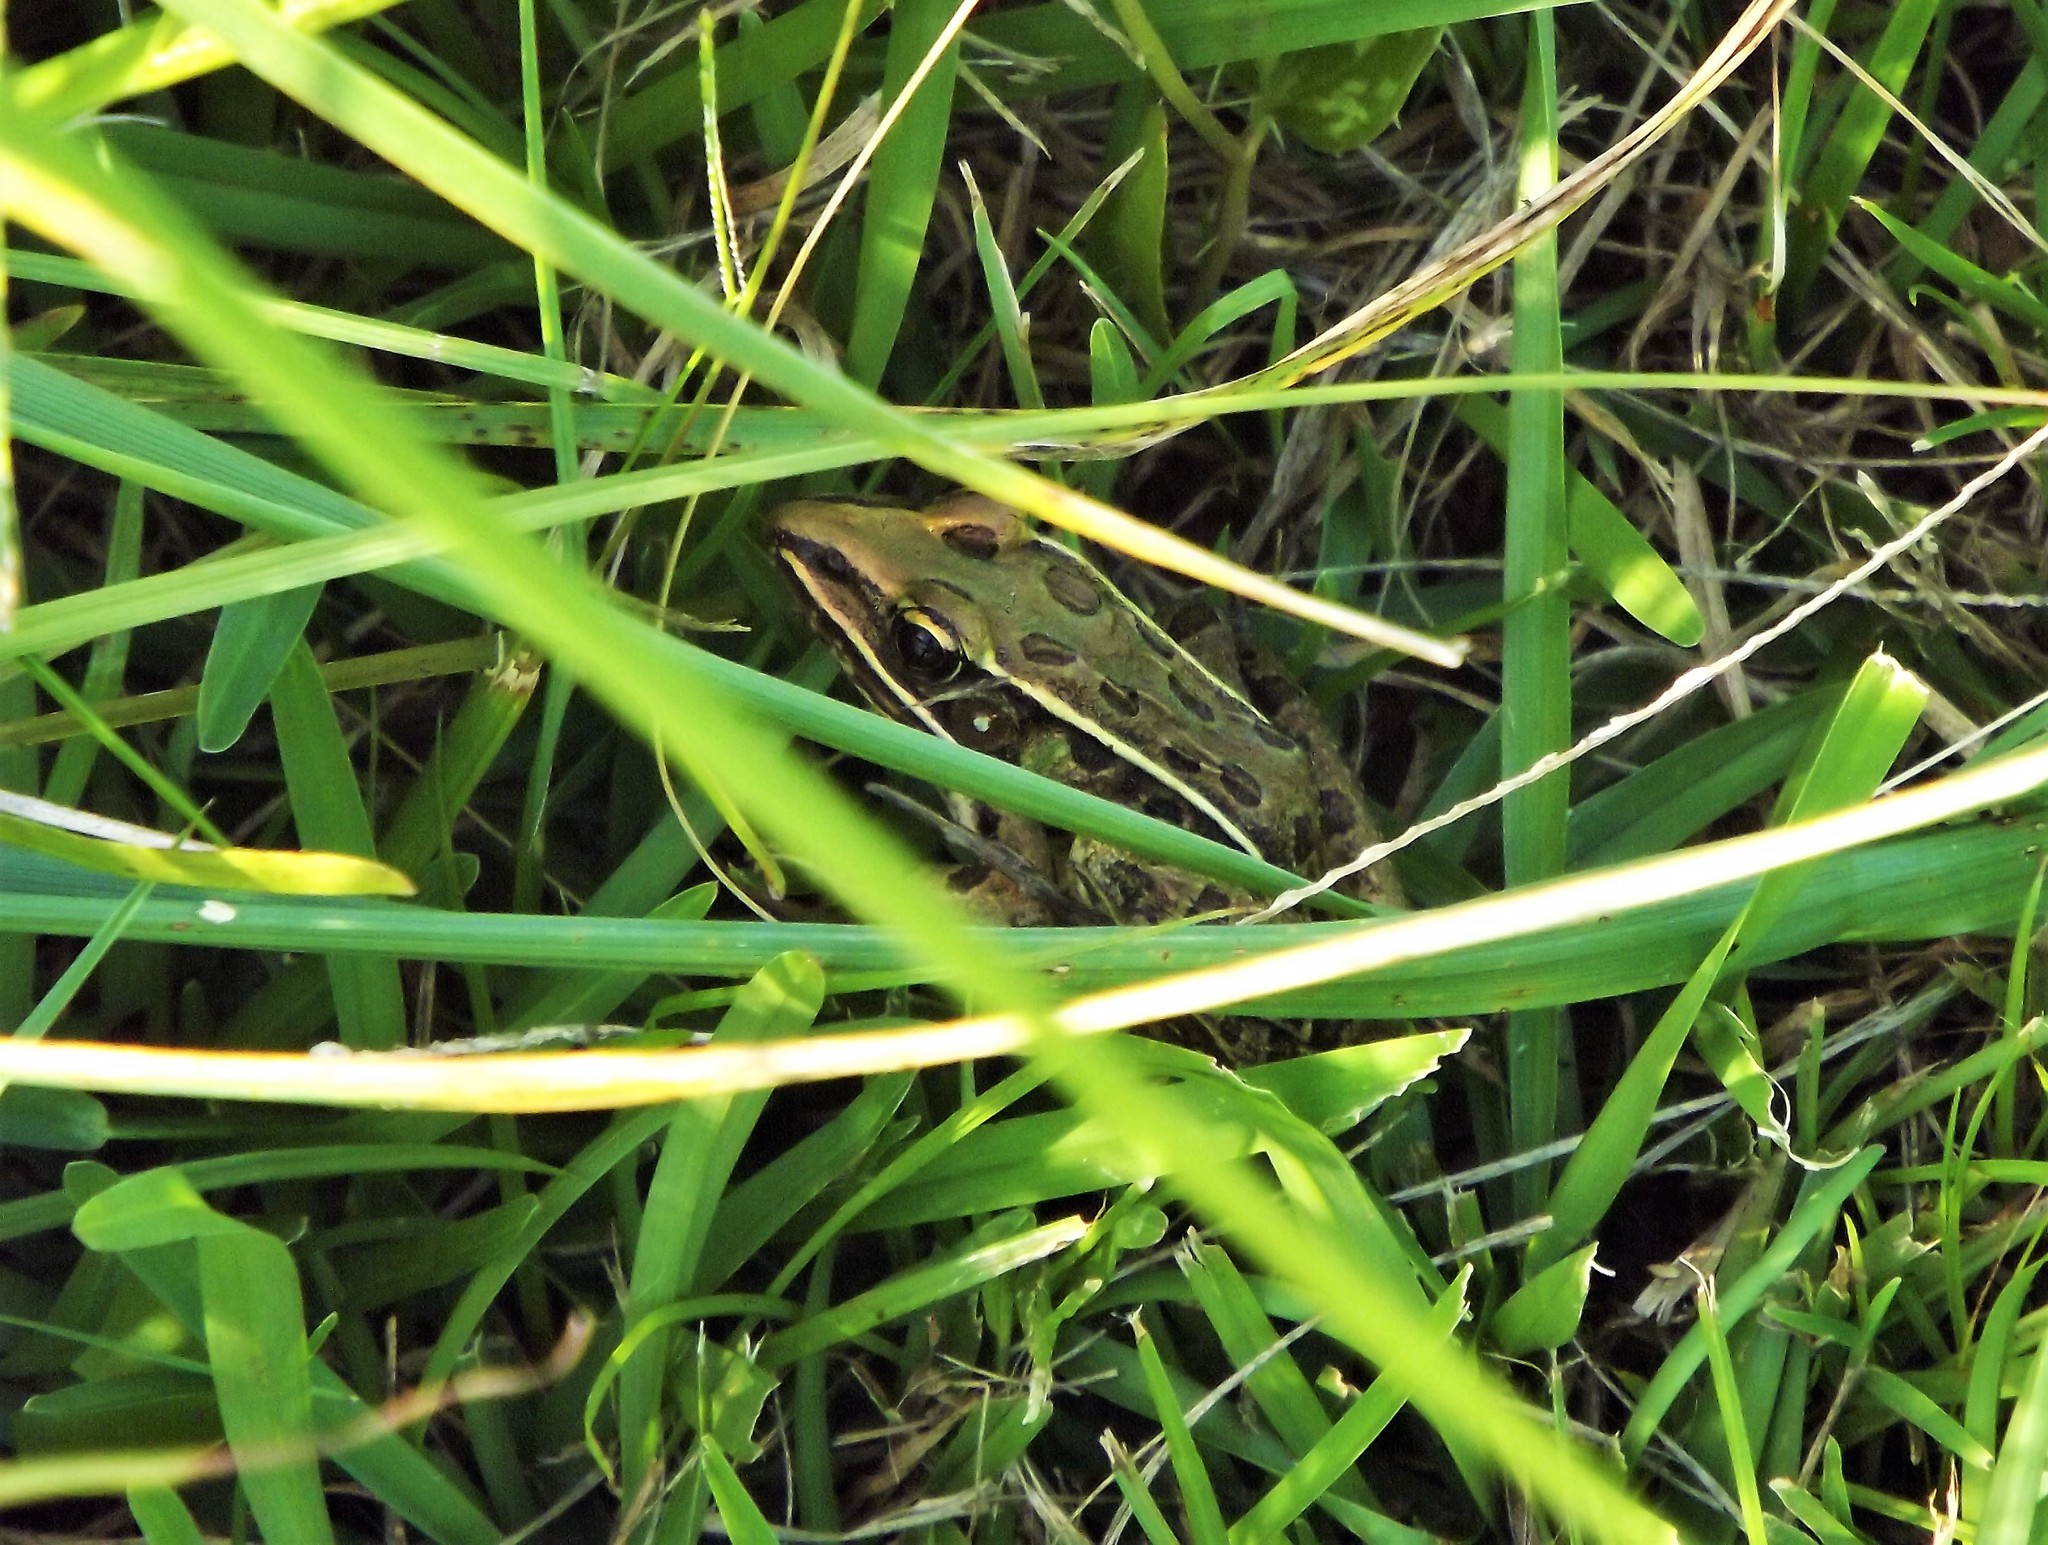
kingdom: Animalia
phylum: Chordata
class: Amphibia
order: Anura
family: Ranidae
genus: Lithobates
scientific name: Lithobates sphenocephalus
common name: Southern leopard frog
